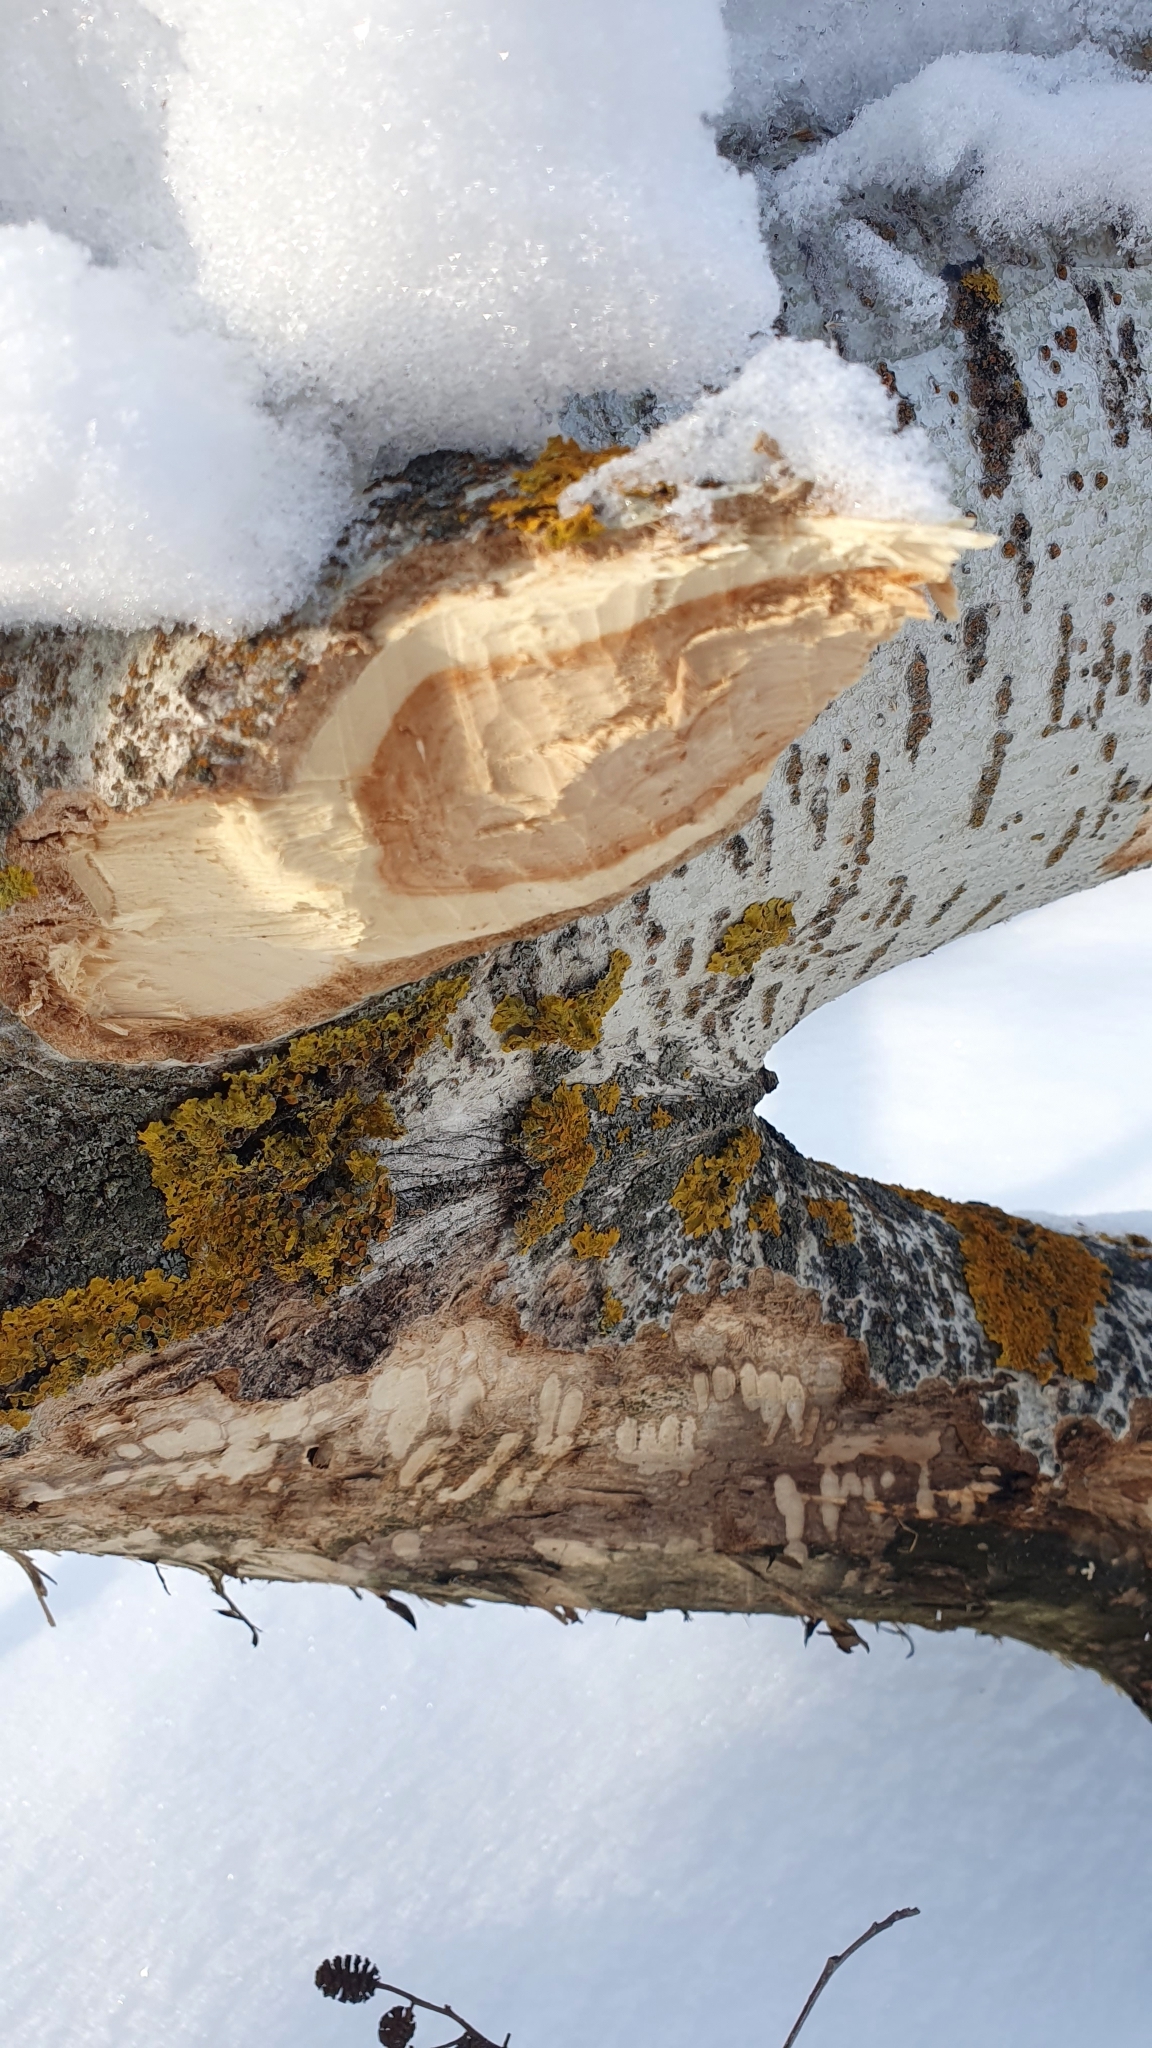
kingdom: Animalia
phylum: Chordata
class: Mammalia
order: Rodentia
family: Castoridae
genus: Castor
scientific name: Castor fiber
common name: Eurasian beaver
